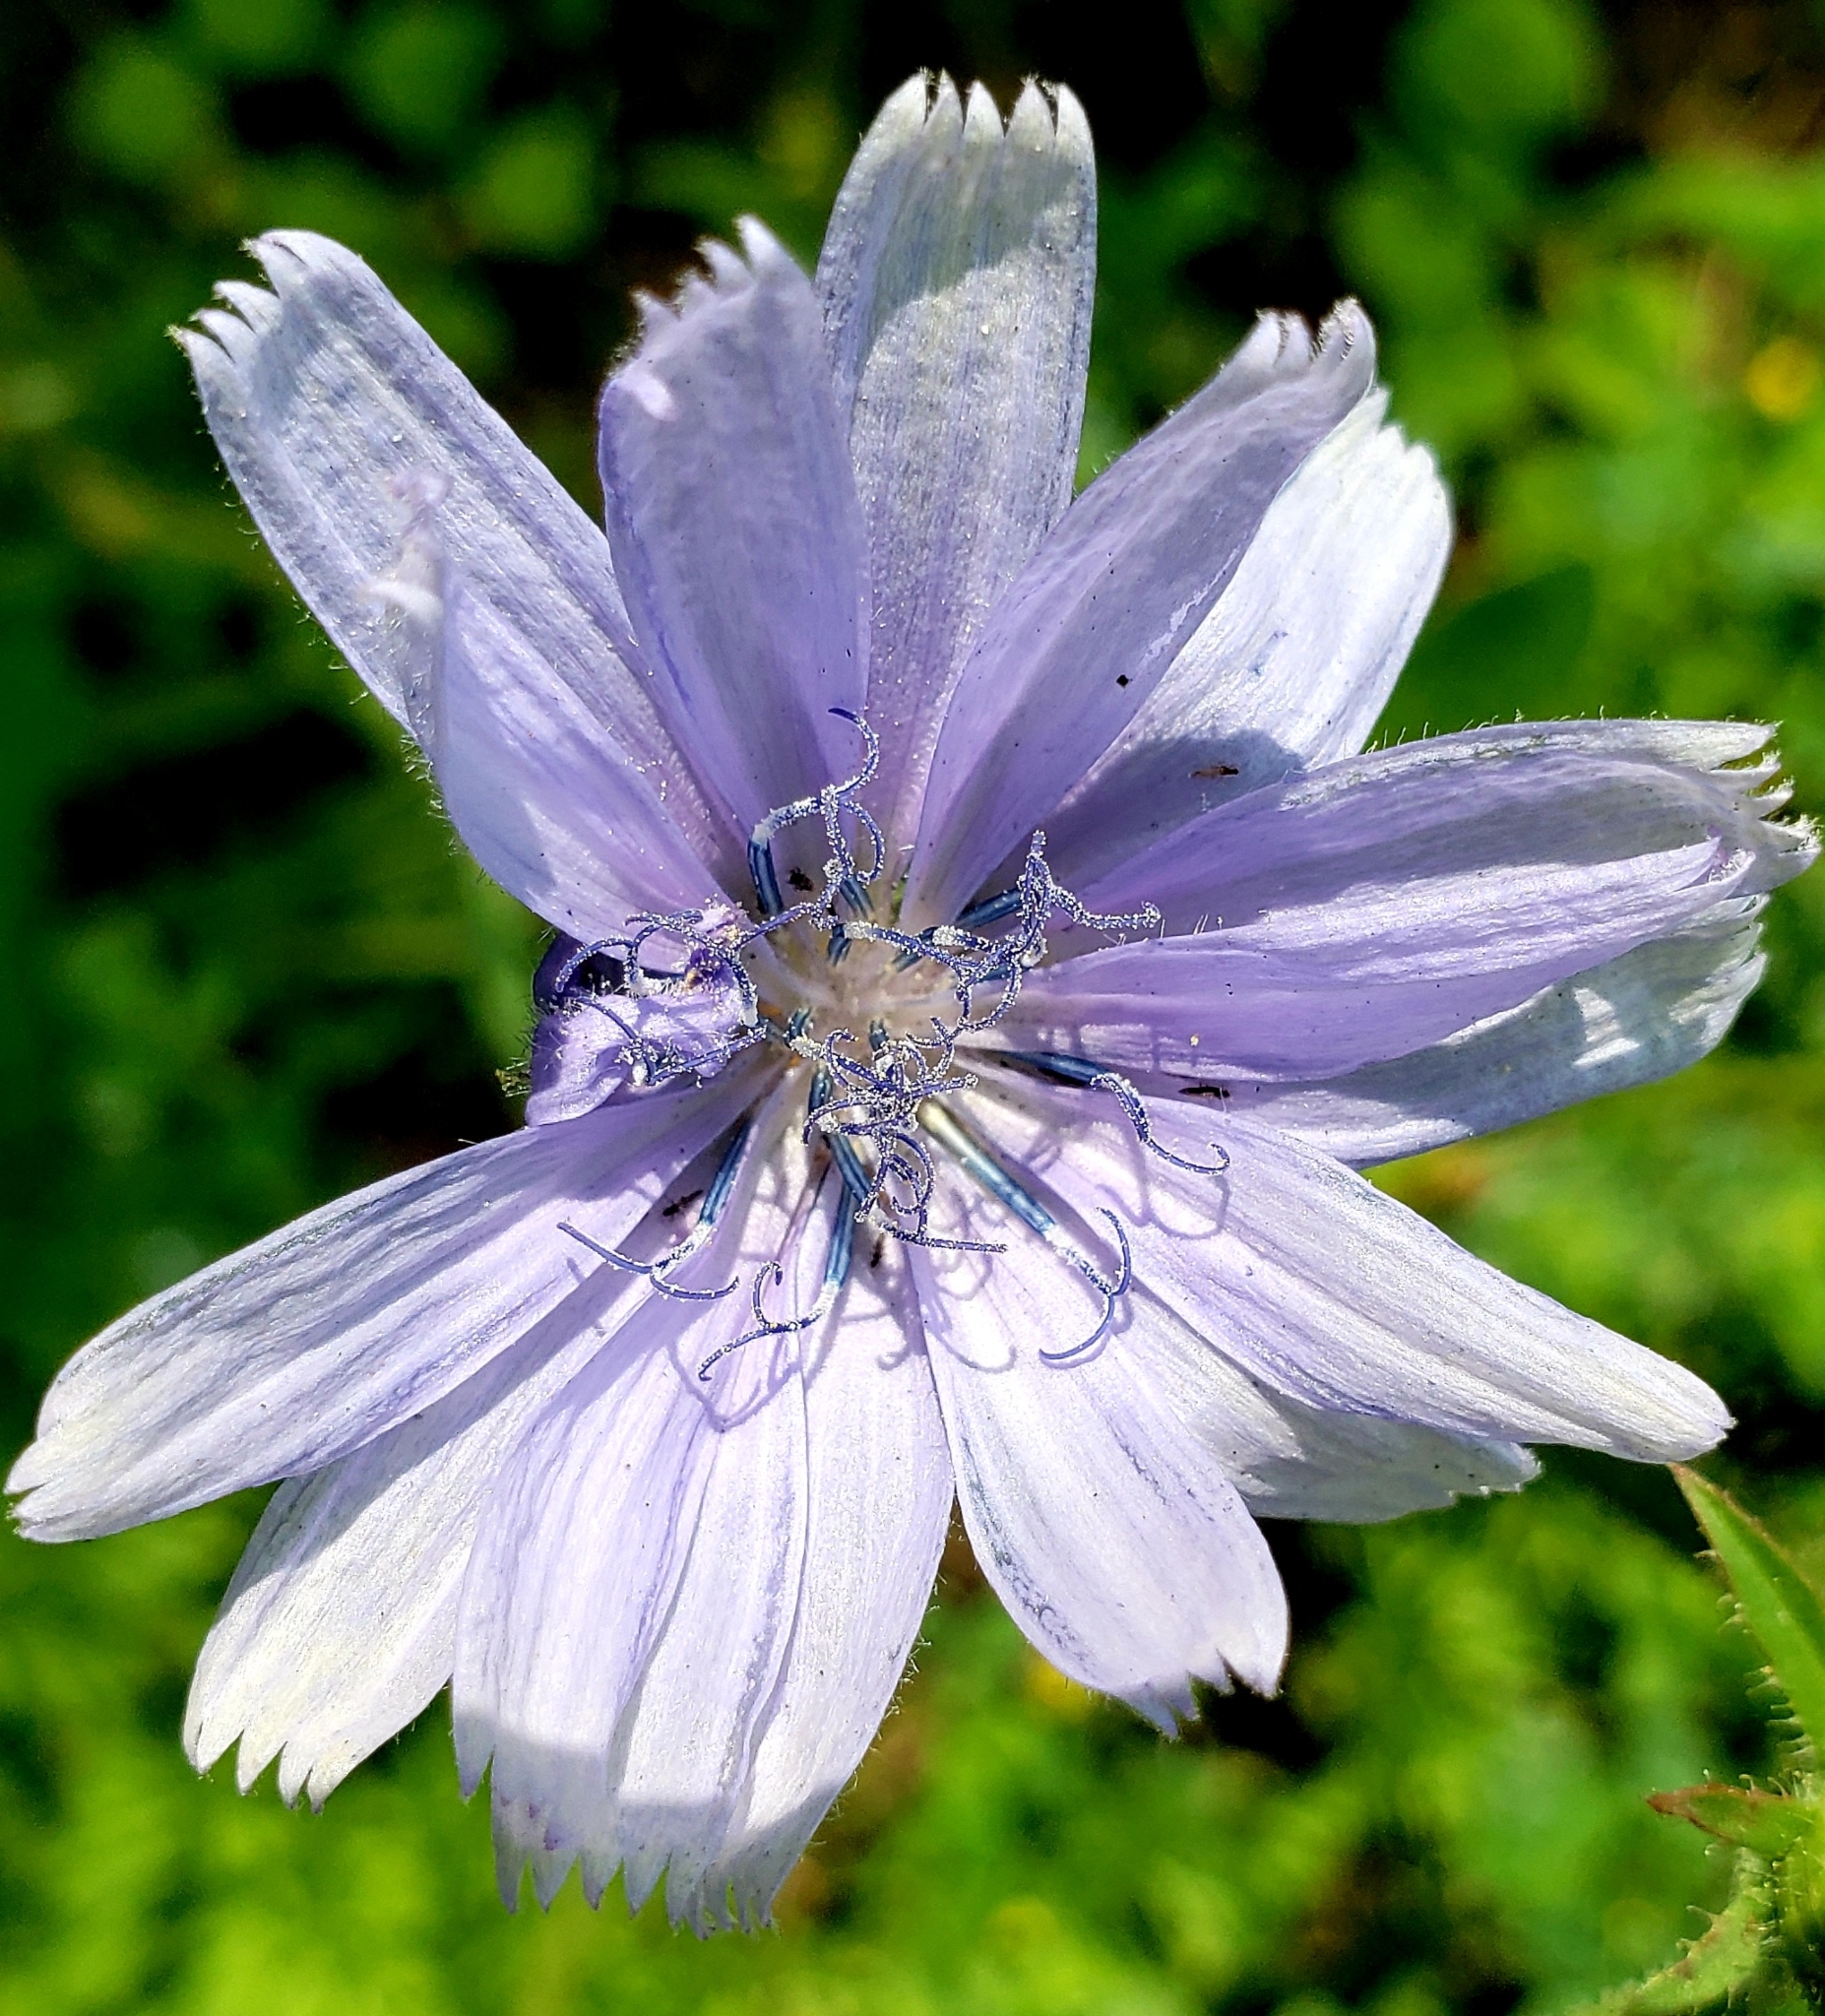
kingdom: Plantae
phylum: Tracheophyta
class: Magnoliopsida
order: Asterales
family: Asteraceae
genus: Cichorium
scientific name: Cichorium intybus
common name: Chicory
